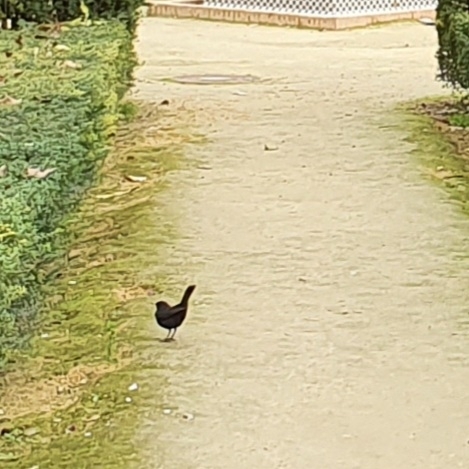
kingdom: Animalia
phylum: Chordata
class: Aves
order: Passeriformes
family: Turdidae
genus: Turdus
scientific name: Turdus merula
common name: Common blackbird
